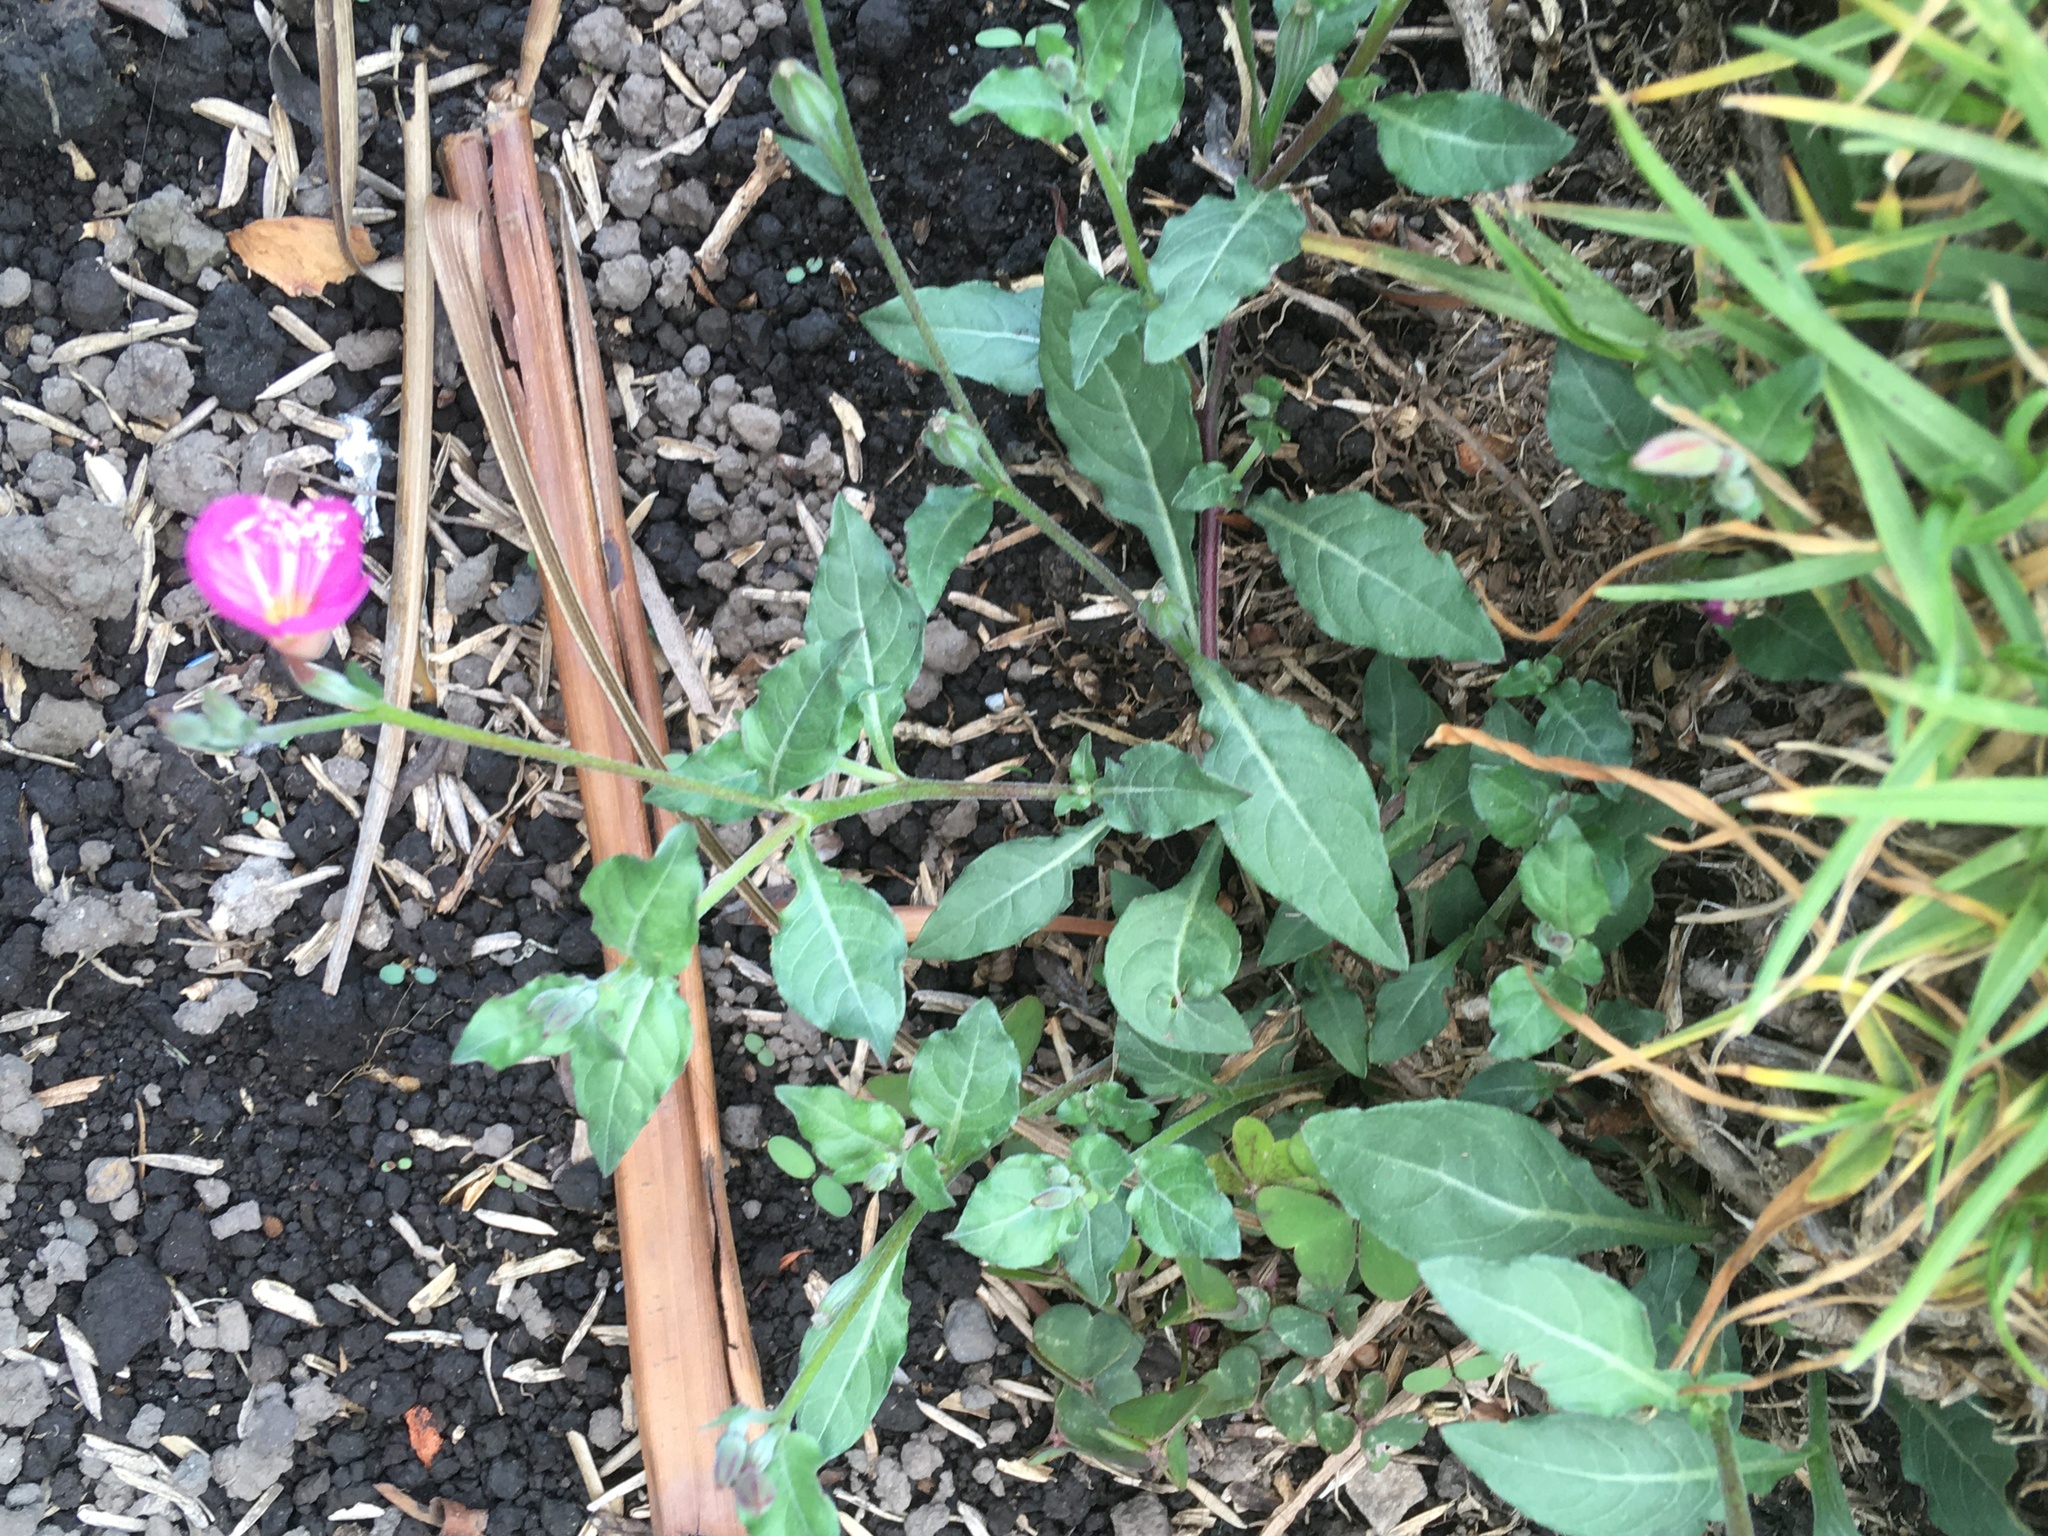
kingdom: Plantae
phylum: Tracheophyta
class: Magnoliopsida
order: Myrtales
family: Onagraceae
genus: Oenothera
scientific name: Oenothera rosea
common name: Rosy evening-primrose
